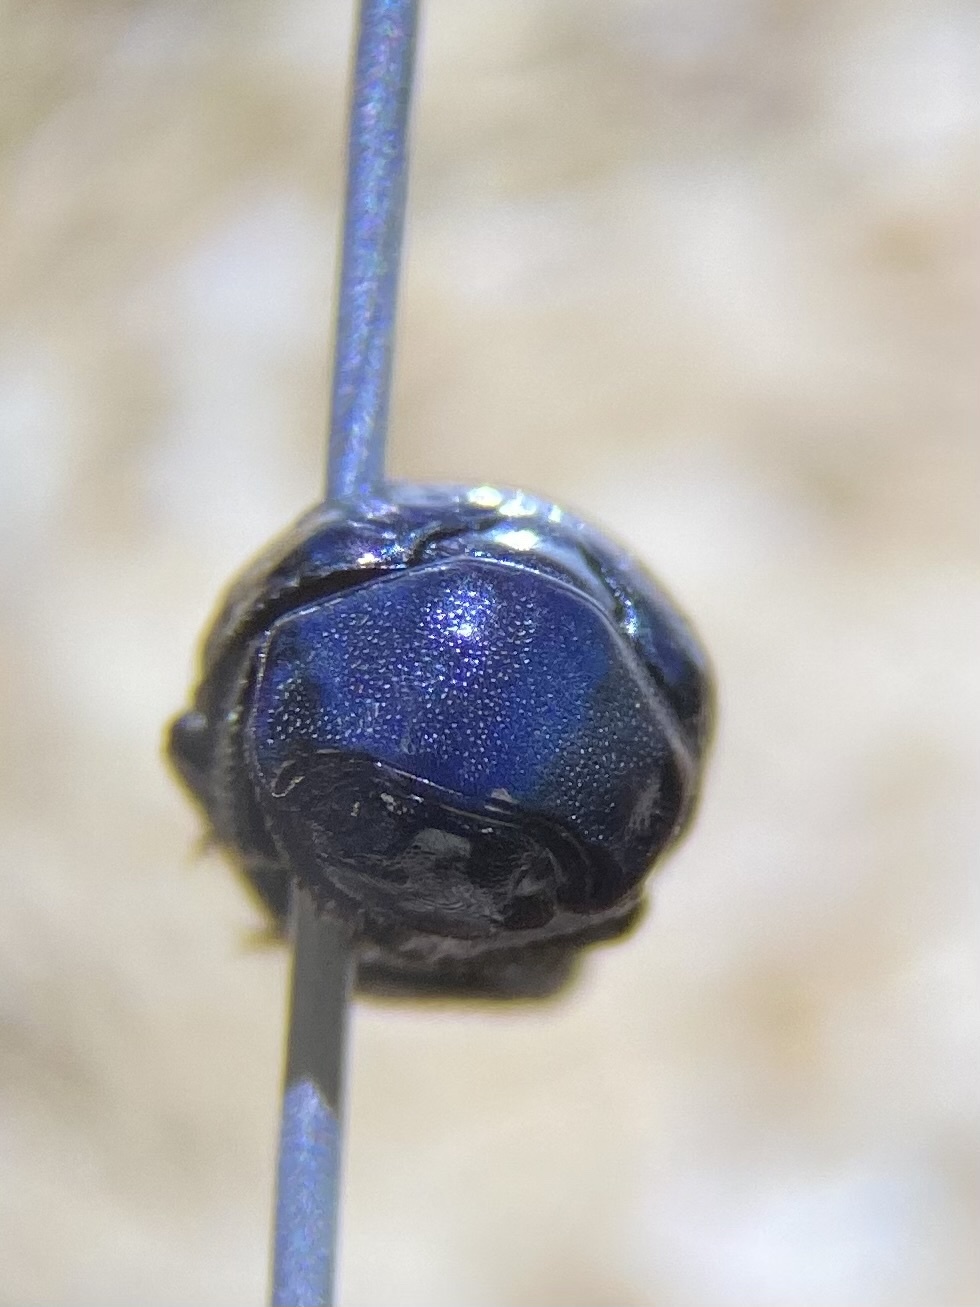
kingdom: Animalia
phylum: Arthropoda
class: Insecta
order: Coleoptera
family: Hybosoridae
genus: Germarostes
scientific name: Germarostes globosus
